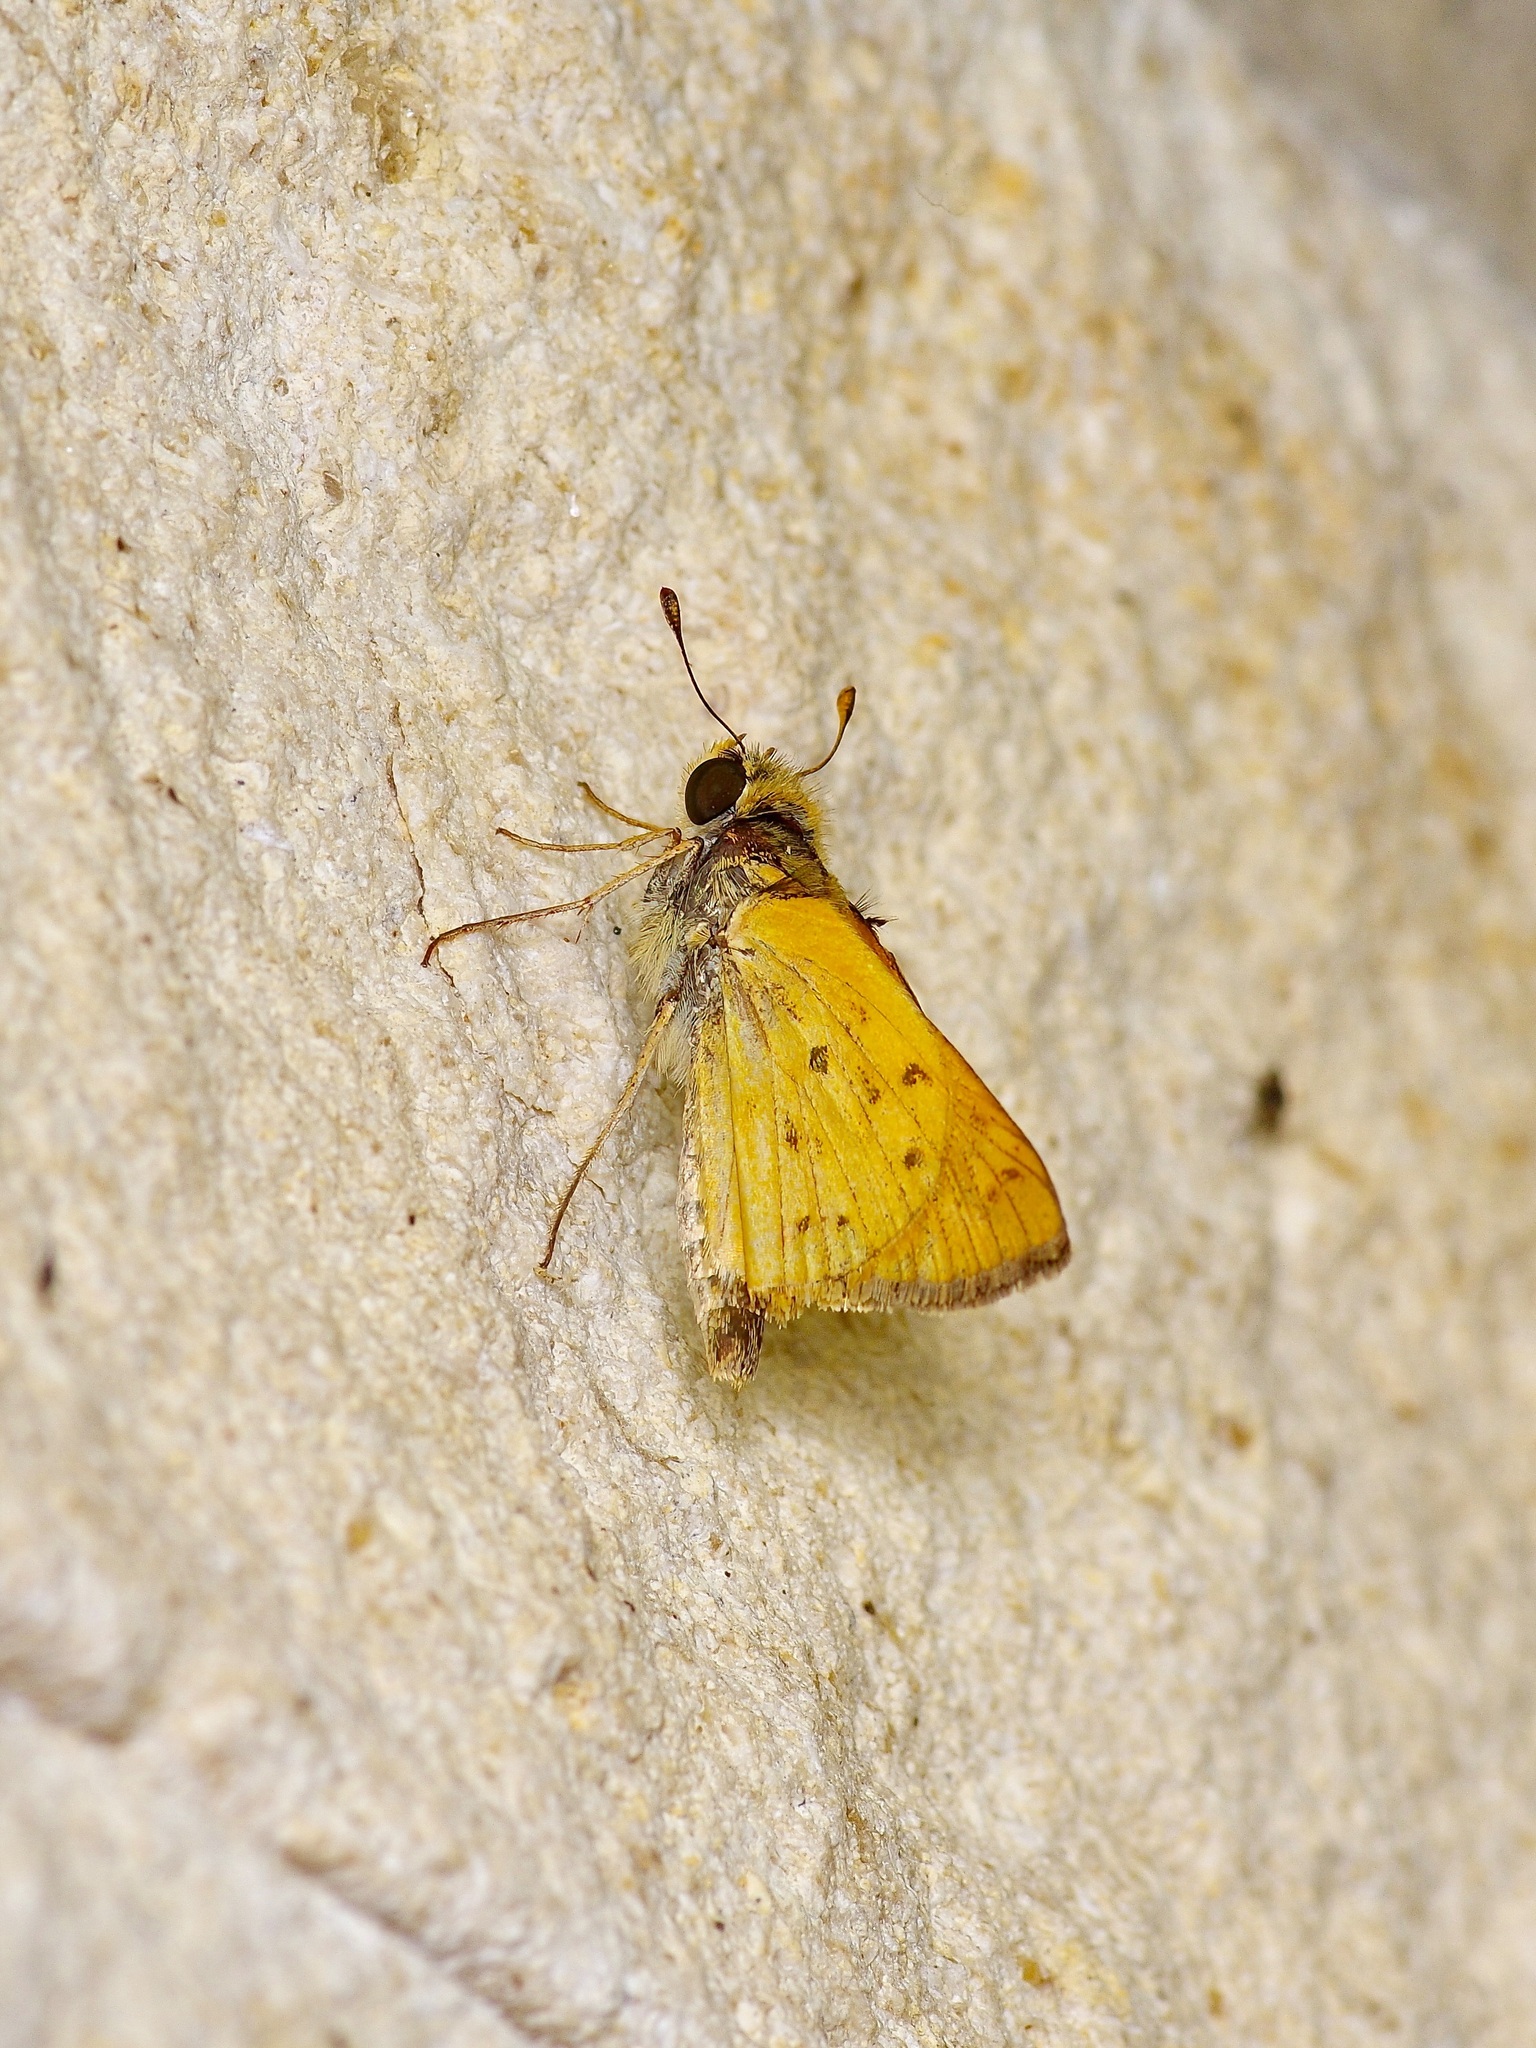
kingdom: Animalia
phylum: Arthropoda
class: Insecta
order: Lepidoptera
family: Hesperiidae
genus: Hylephila
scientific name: Hylephila phyleus
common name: Fiery skipper
